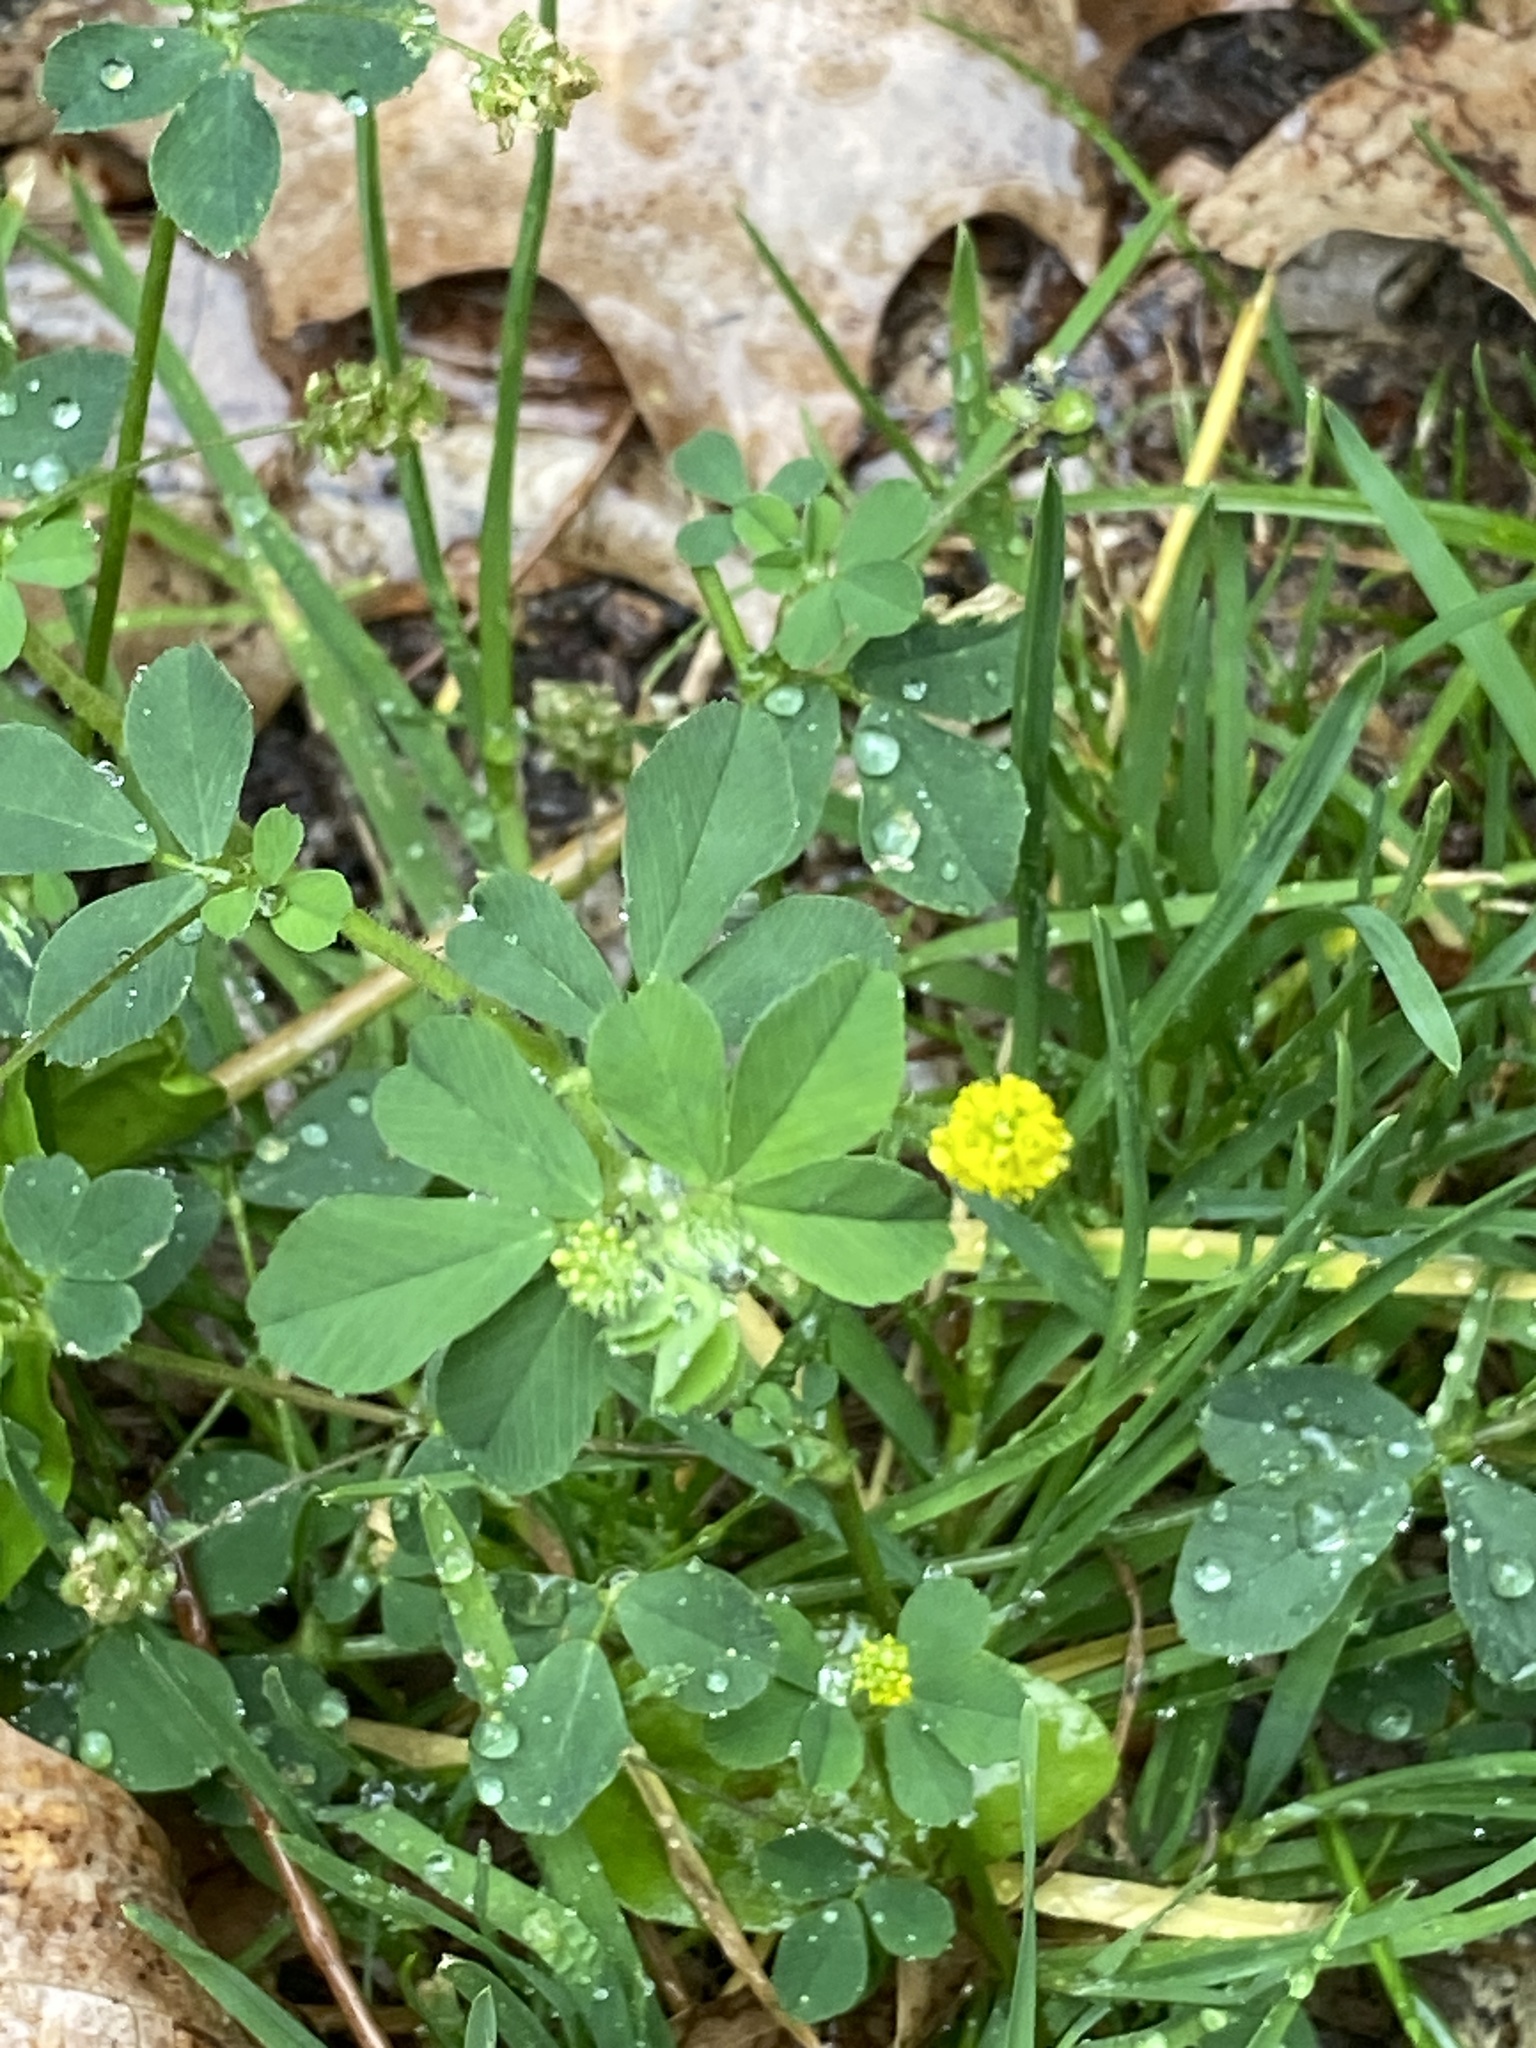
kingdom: Plantae
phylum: Tracheophyta
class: Magnoliopsida
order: Fabales
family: Fabaceae
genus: Medicago
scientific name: Medicago lupulina
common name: Black medick
